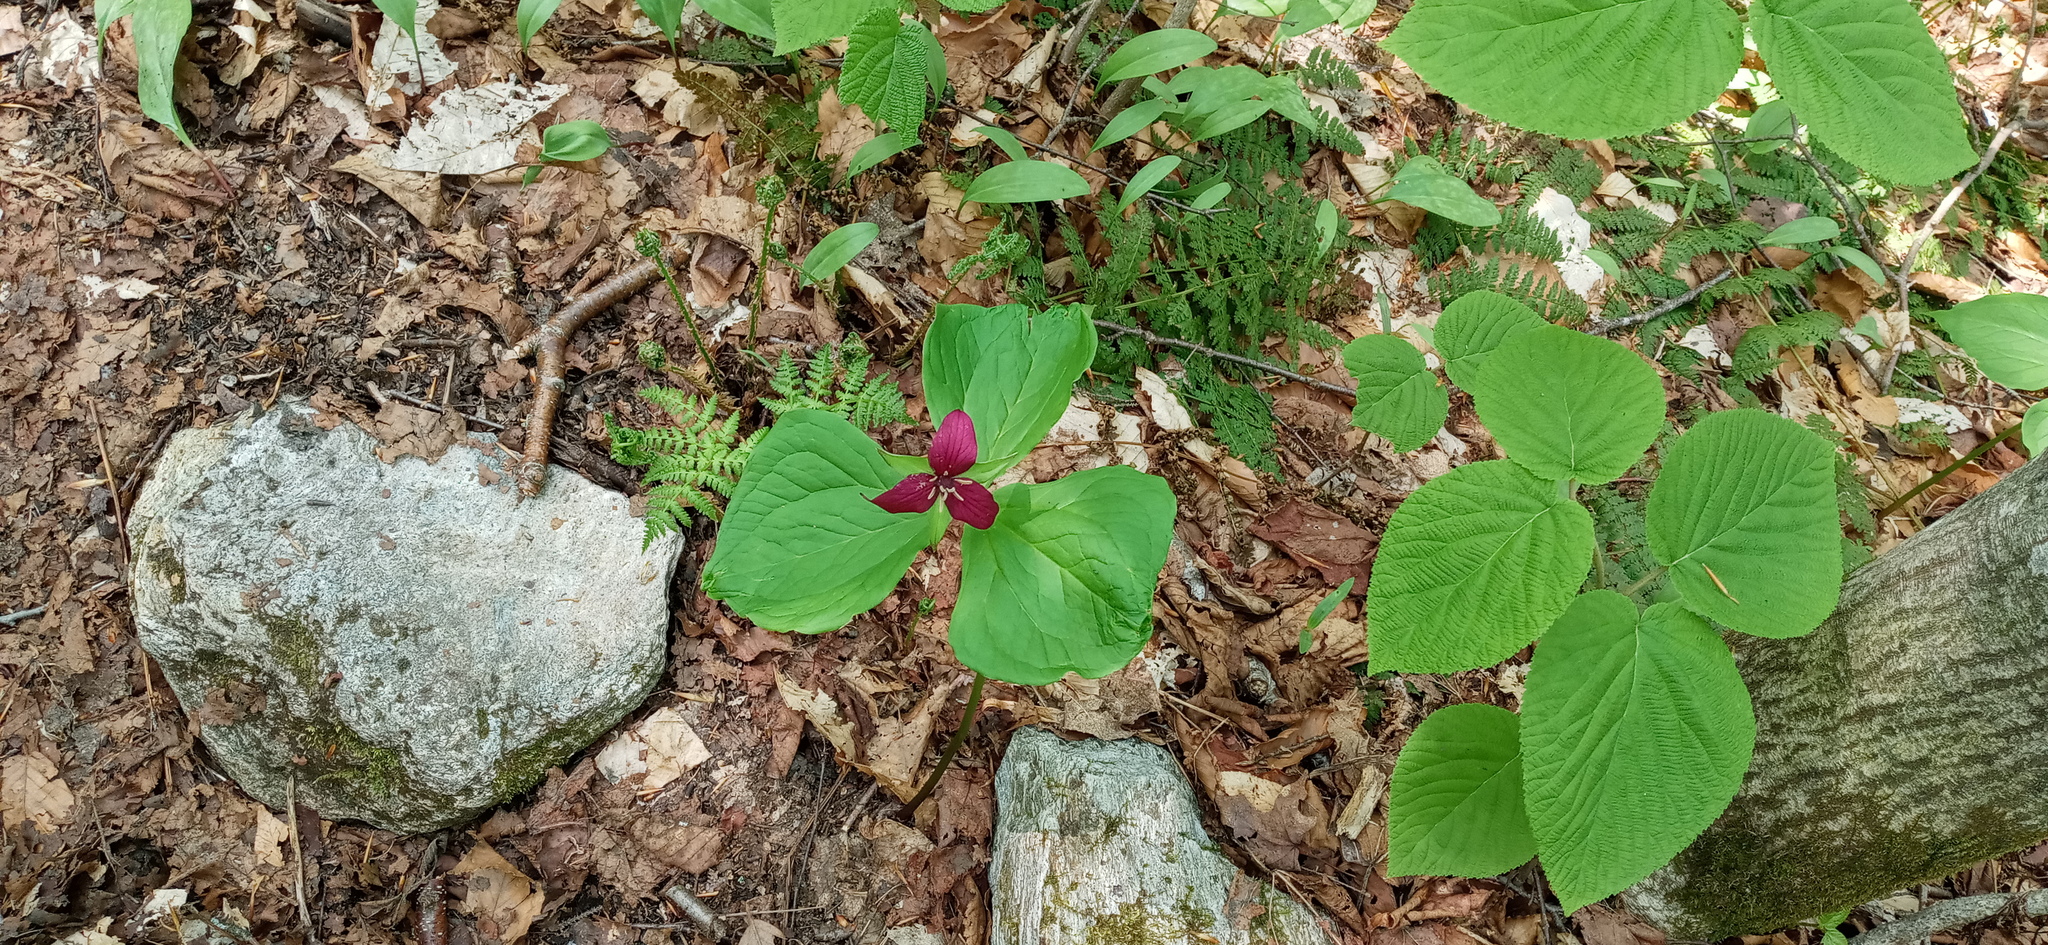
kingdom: Plantae
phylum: Tracheophyta
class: Liliopsida
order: Liliales
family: Melanthiaceae
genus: Trillium
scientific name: Trillium erectum
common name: Purple trillium
